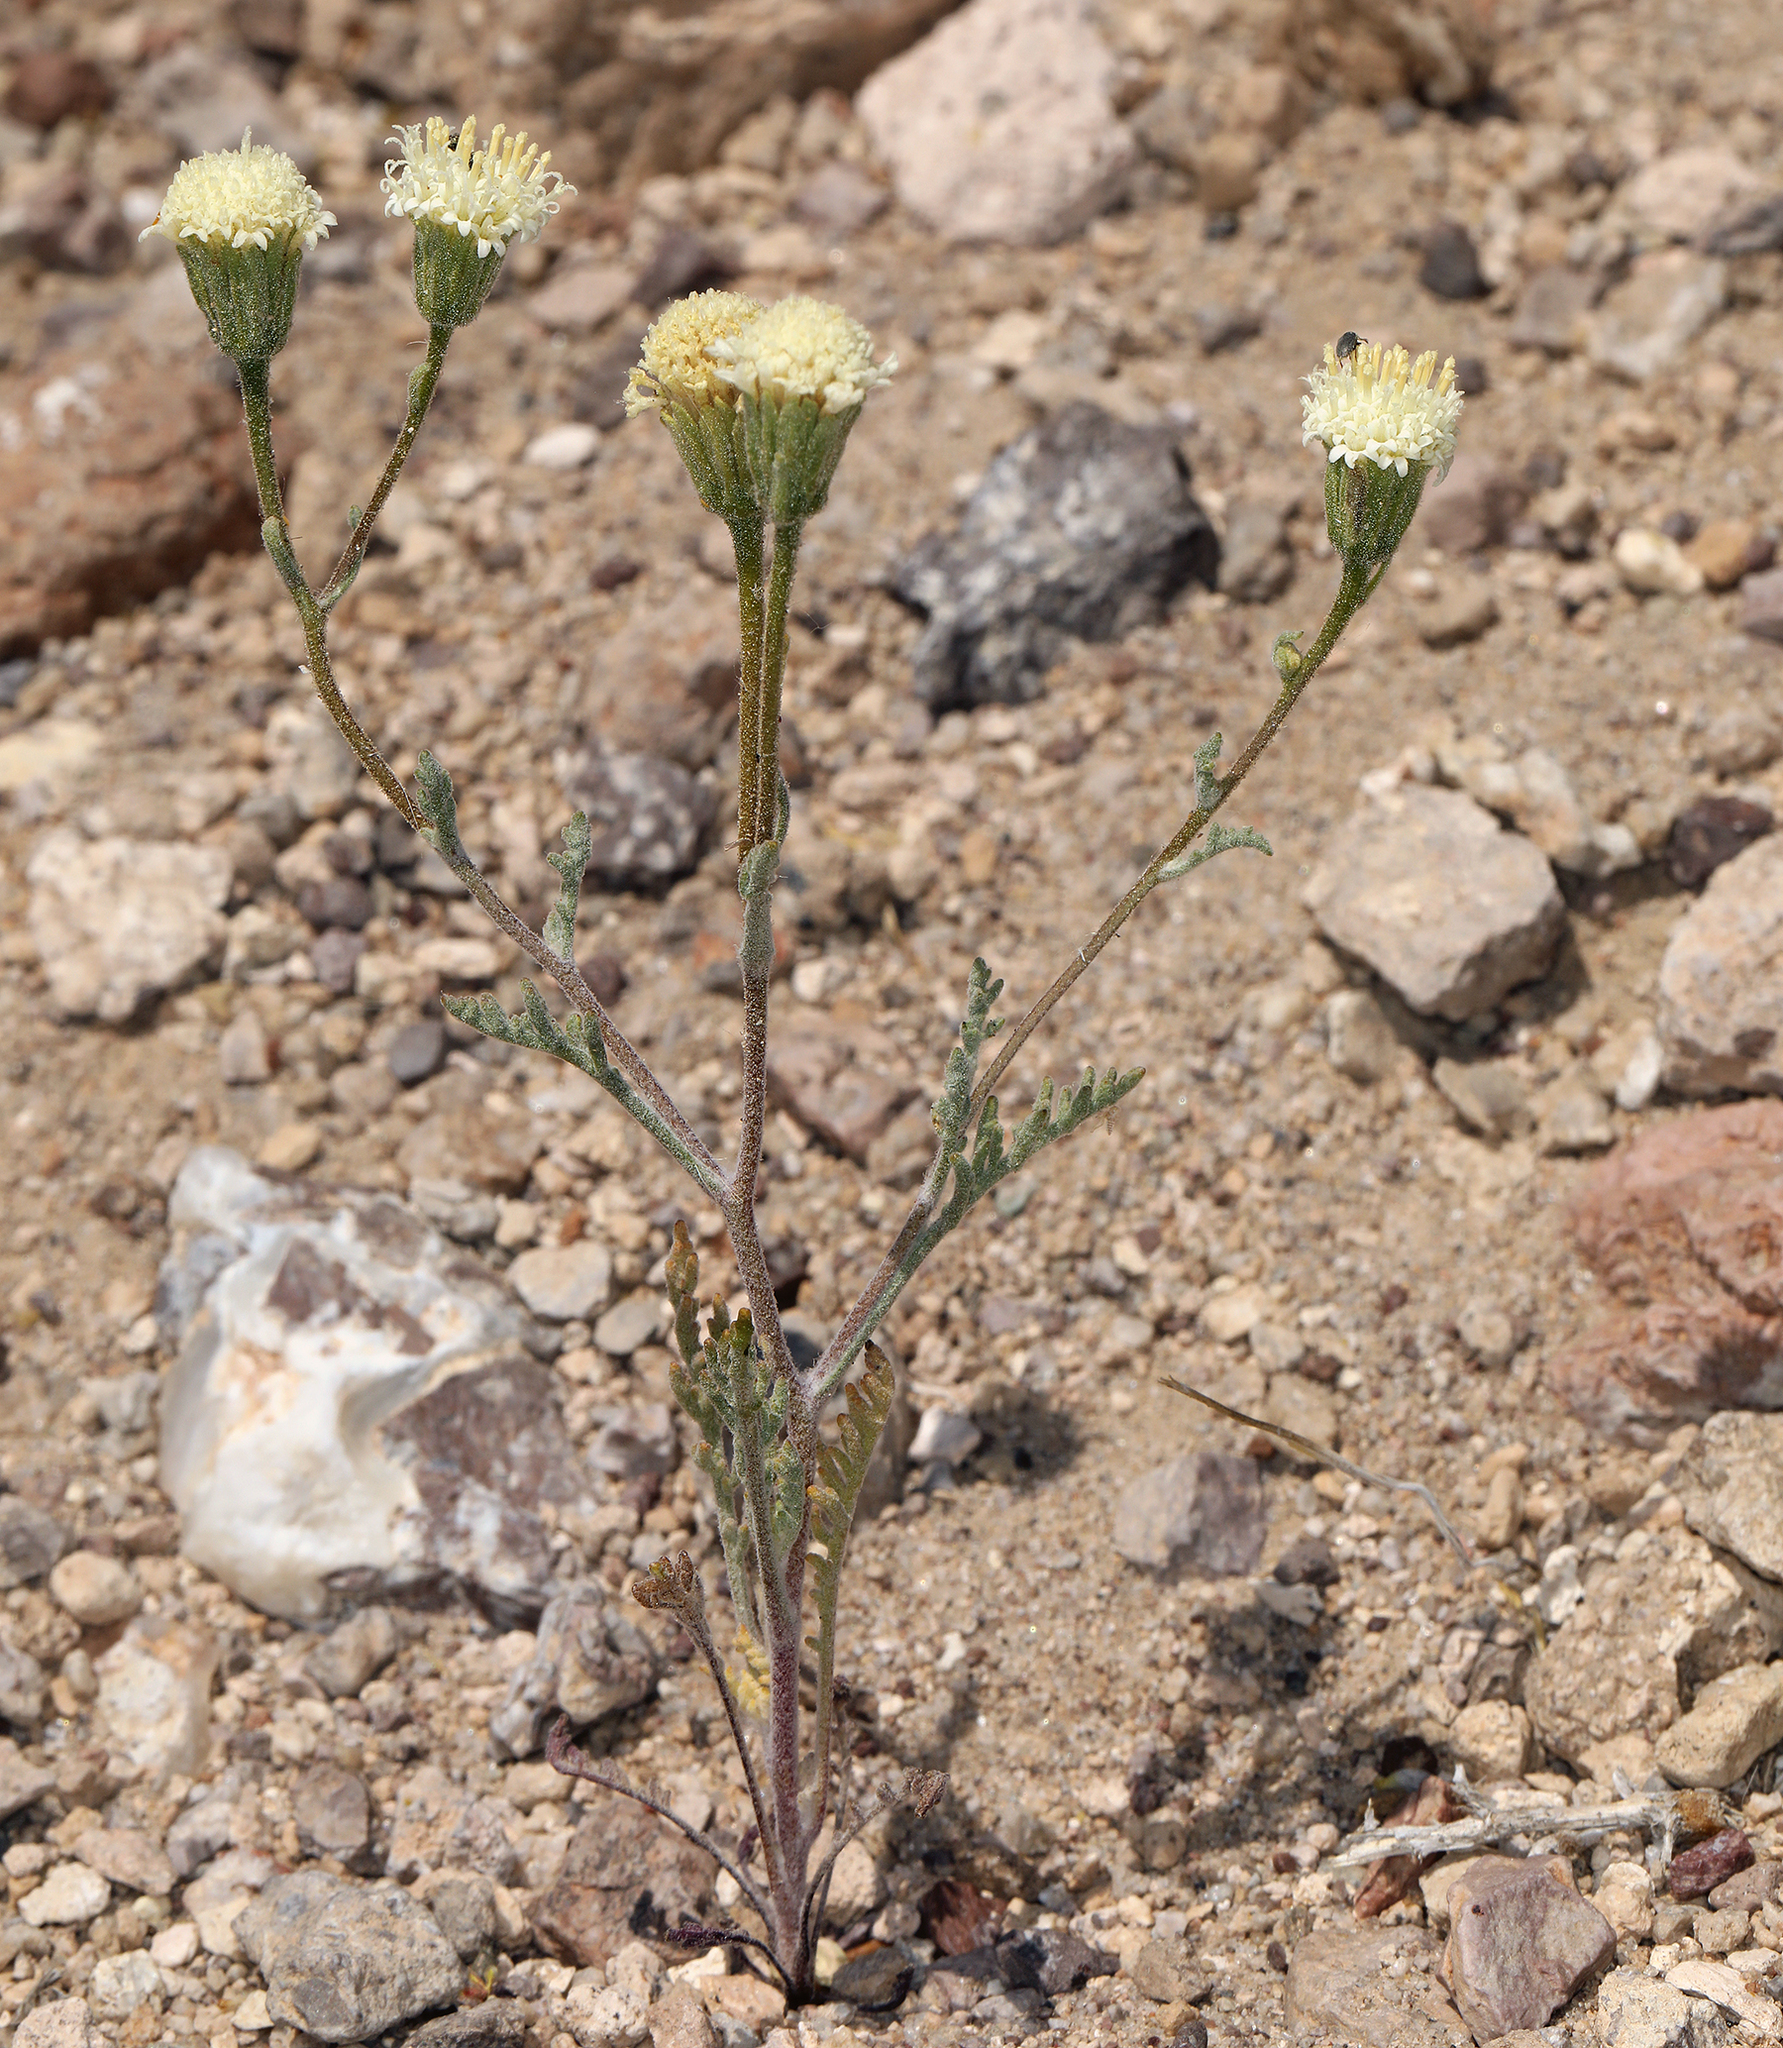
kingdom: Plantae
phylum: Tracheophyta
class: Magnoliopsida
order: Asterales
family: Asteraceae
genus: Chaenactis
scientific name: Chaenactis stevioides
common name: Desert pincushion
